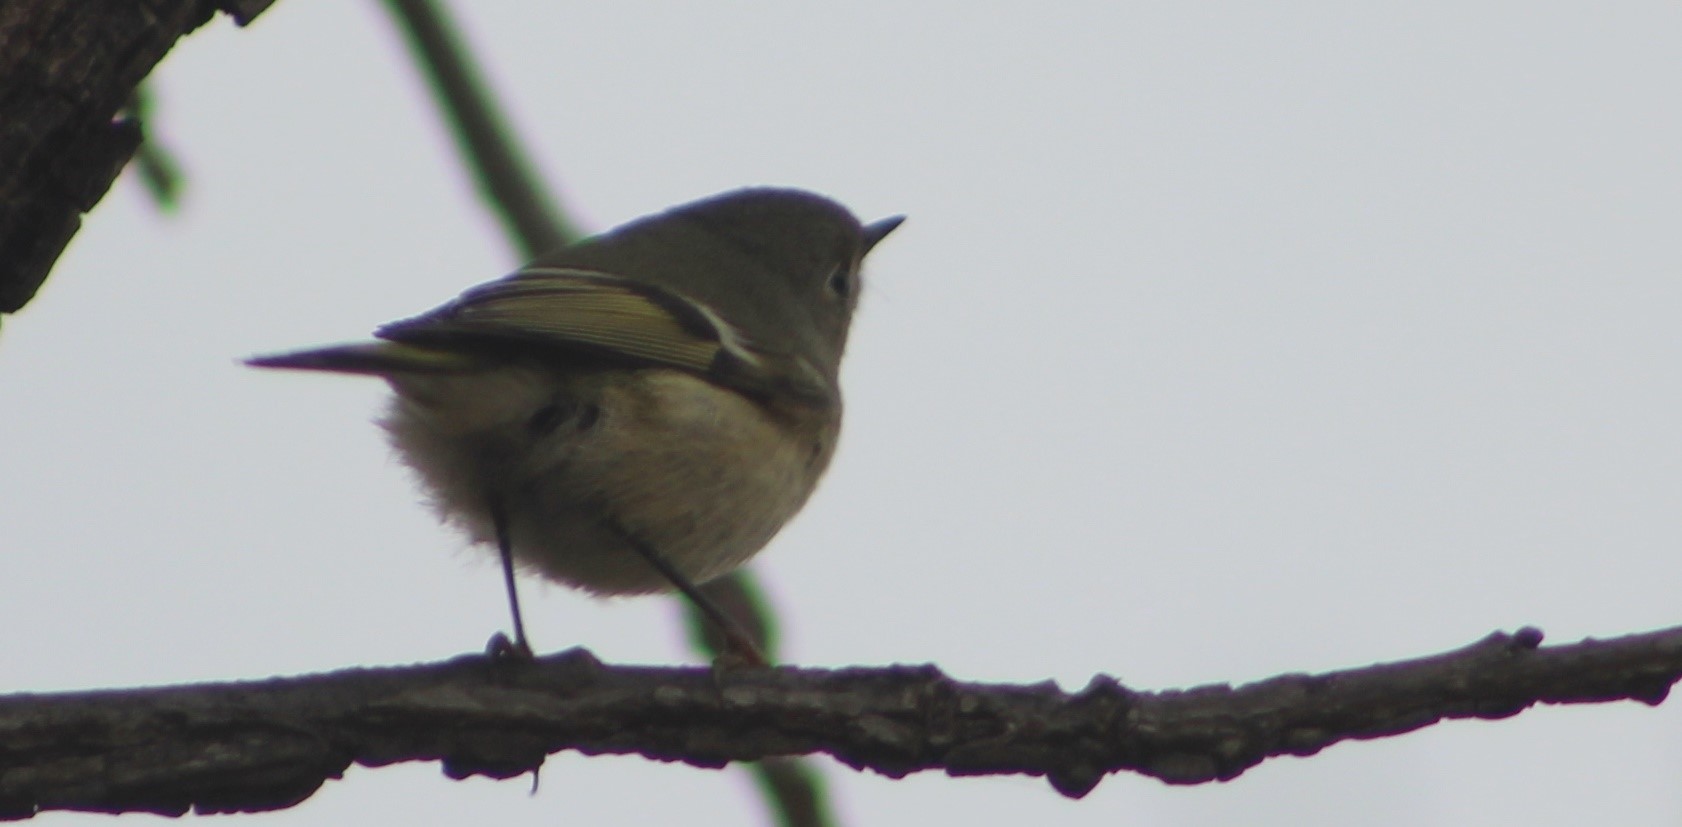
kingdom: Animalia
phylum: Chordata
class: Aves
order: Passeriformes
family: Regulidae
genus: Regulus
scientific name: Regulus calendula
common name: Ruby-crowned kinglet
